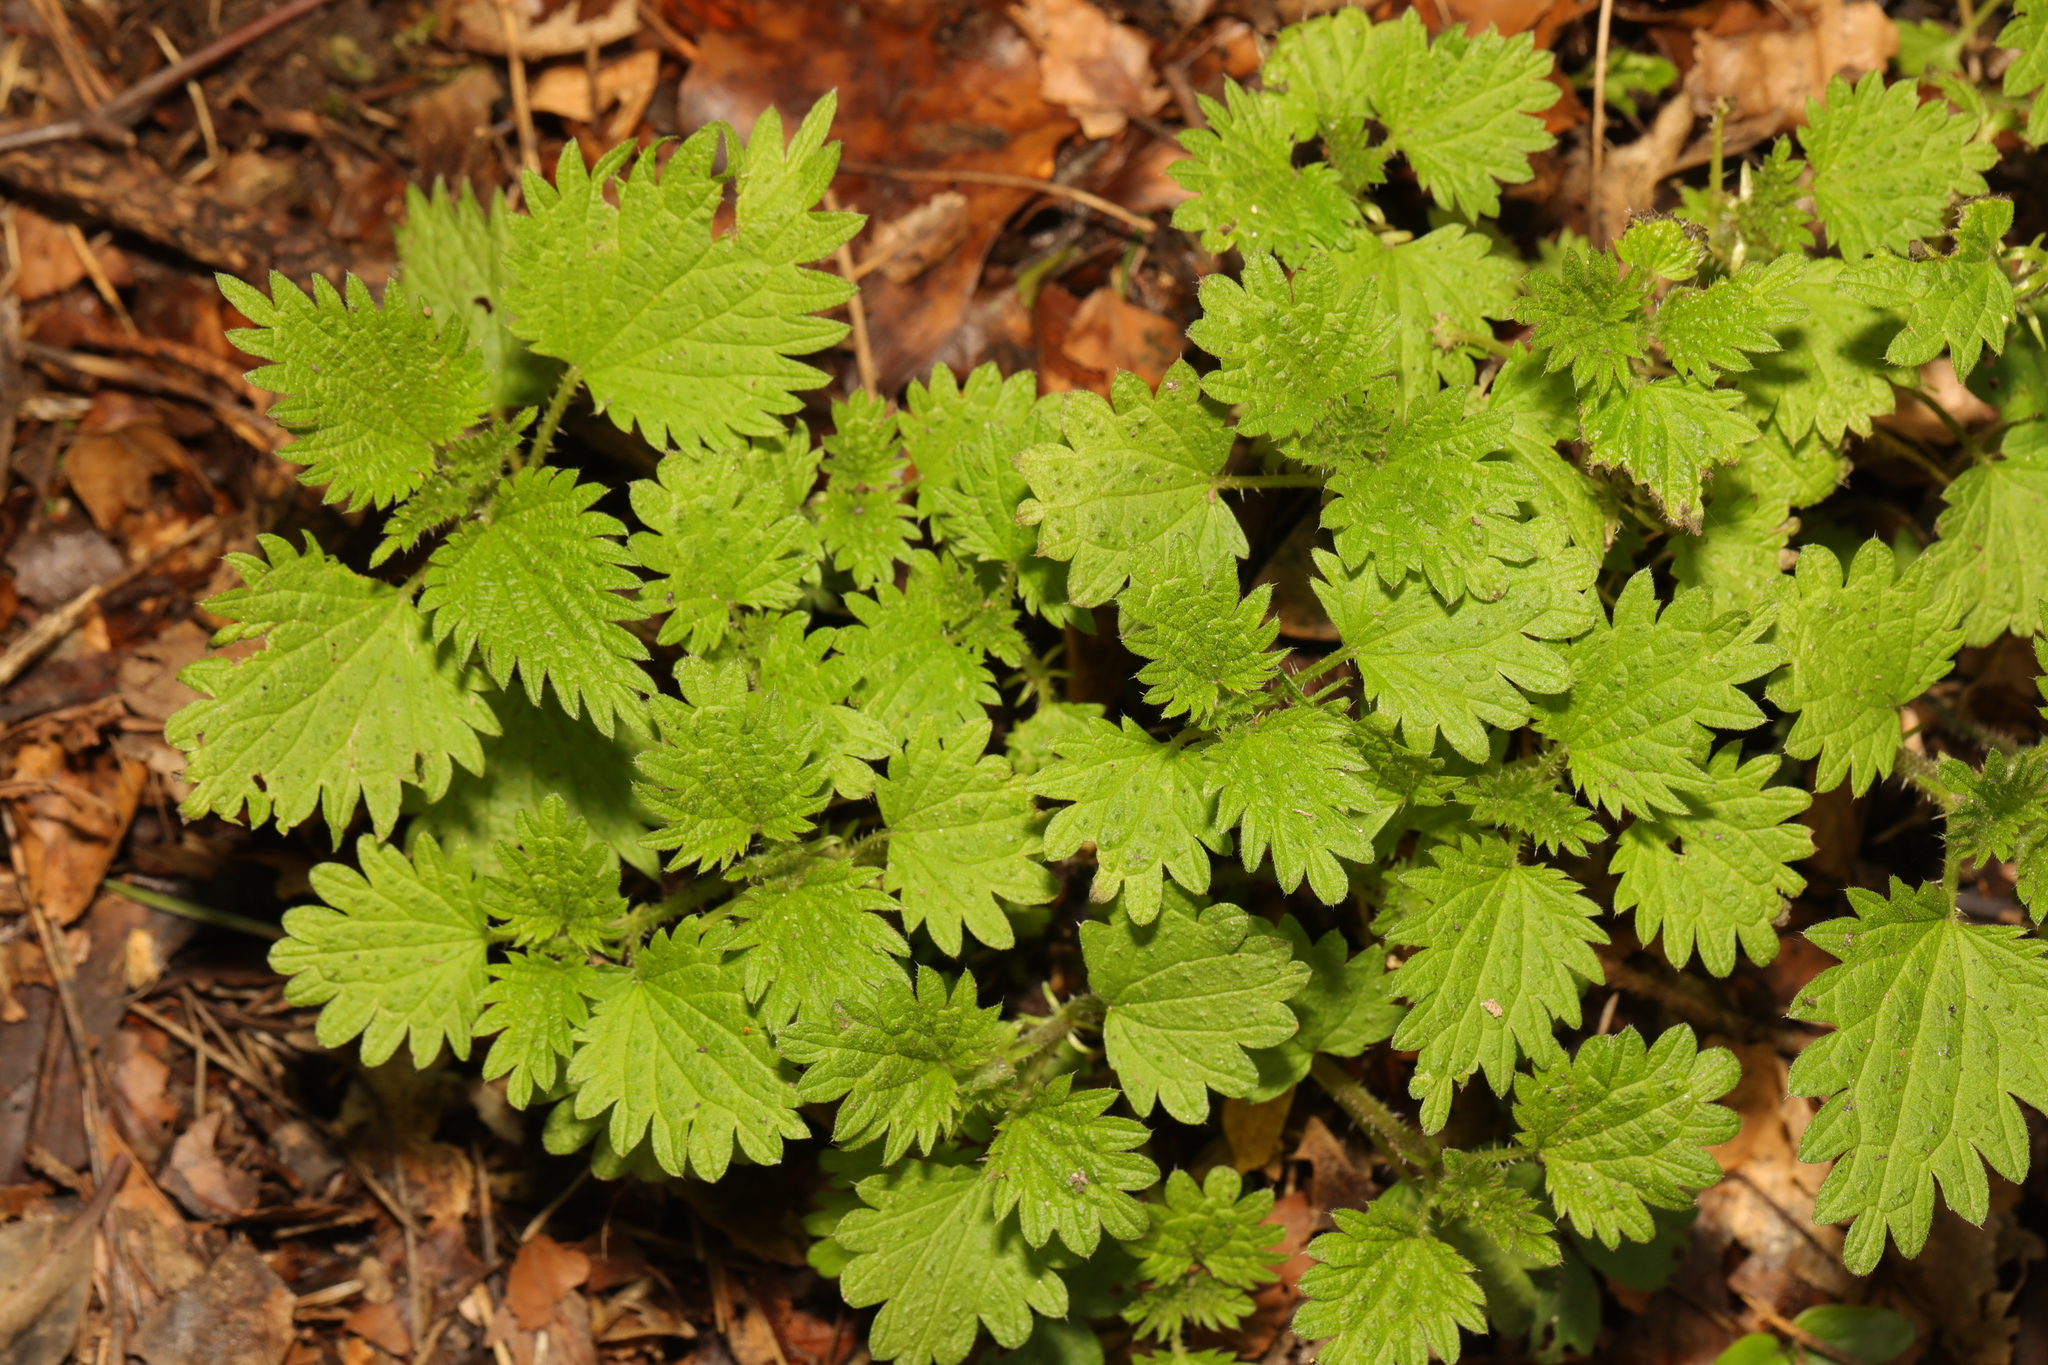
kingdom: Plantae
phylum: Tracheophyta
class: Magnoliopsida
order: Rosales
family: Urticaceae
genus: Urtica
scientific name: Urtica dioica
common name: Common nettle
